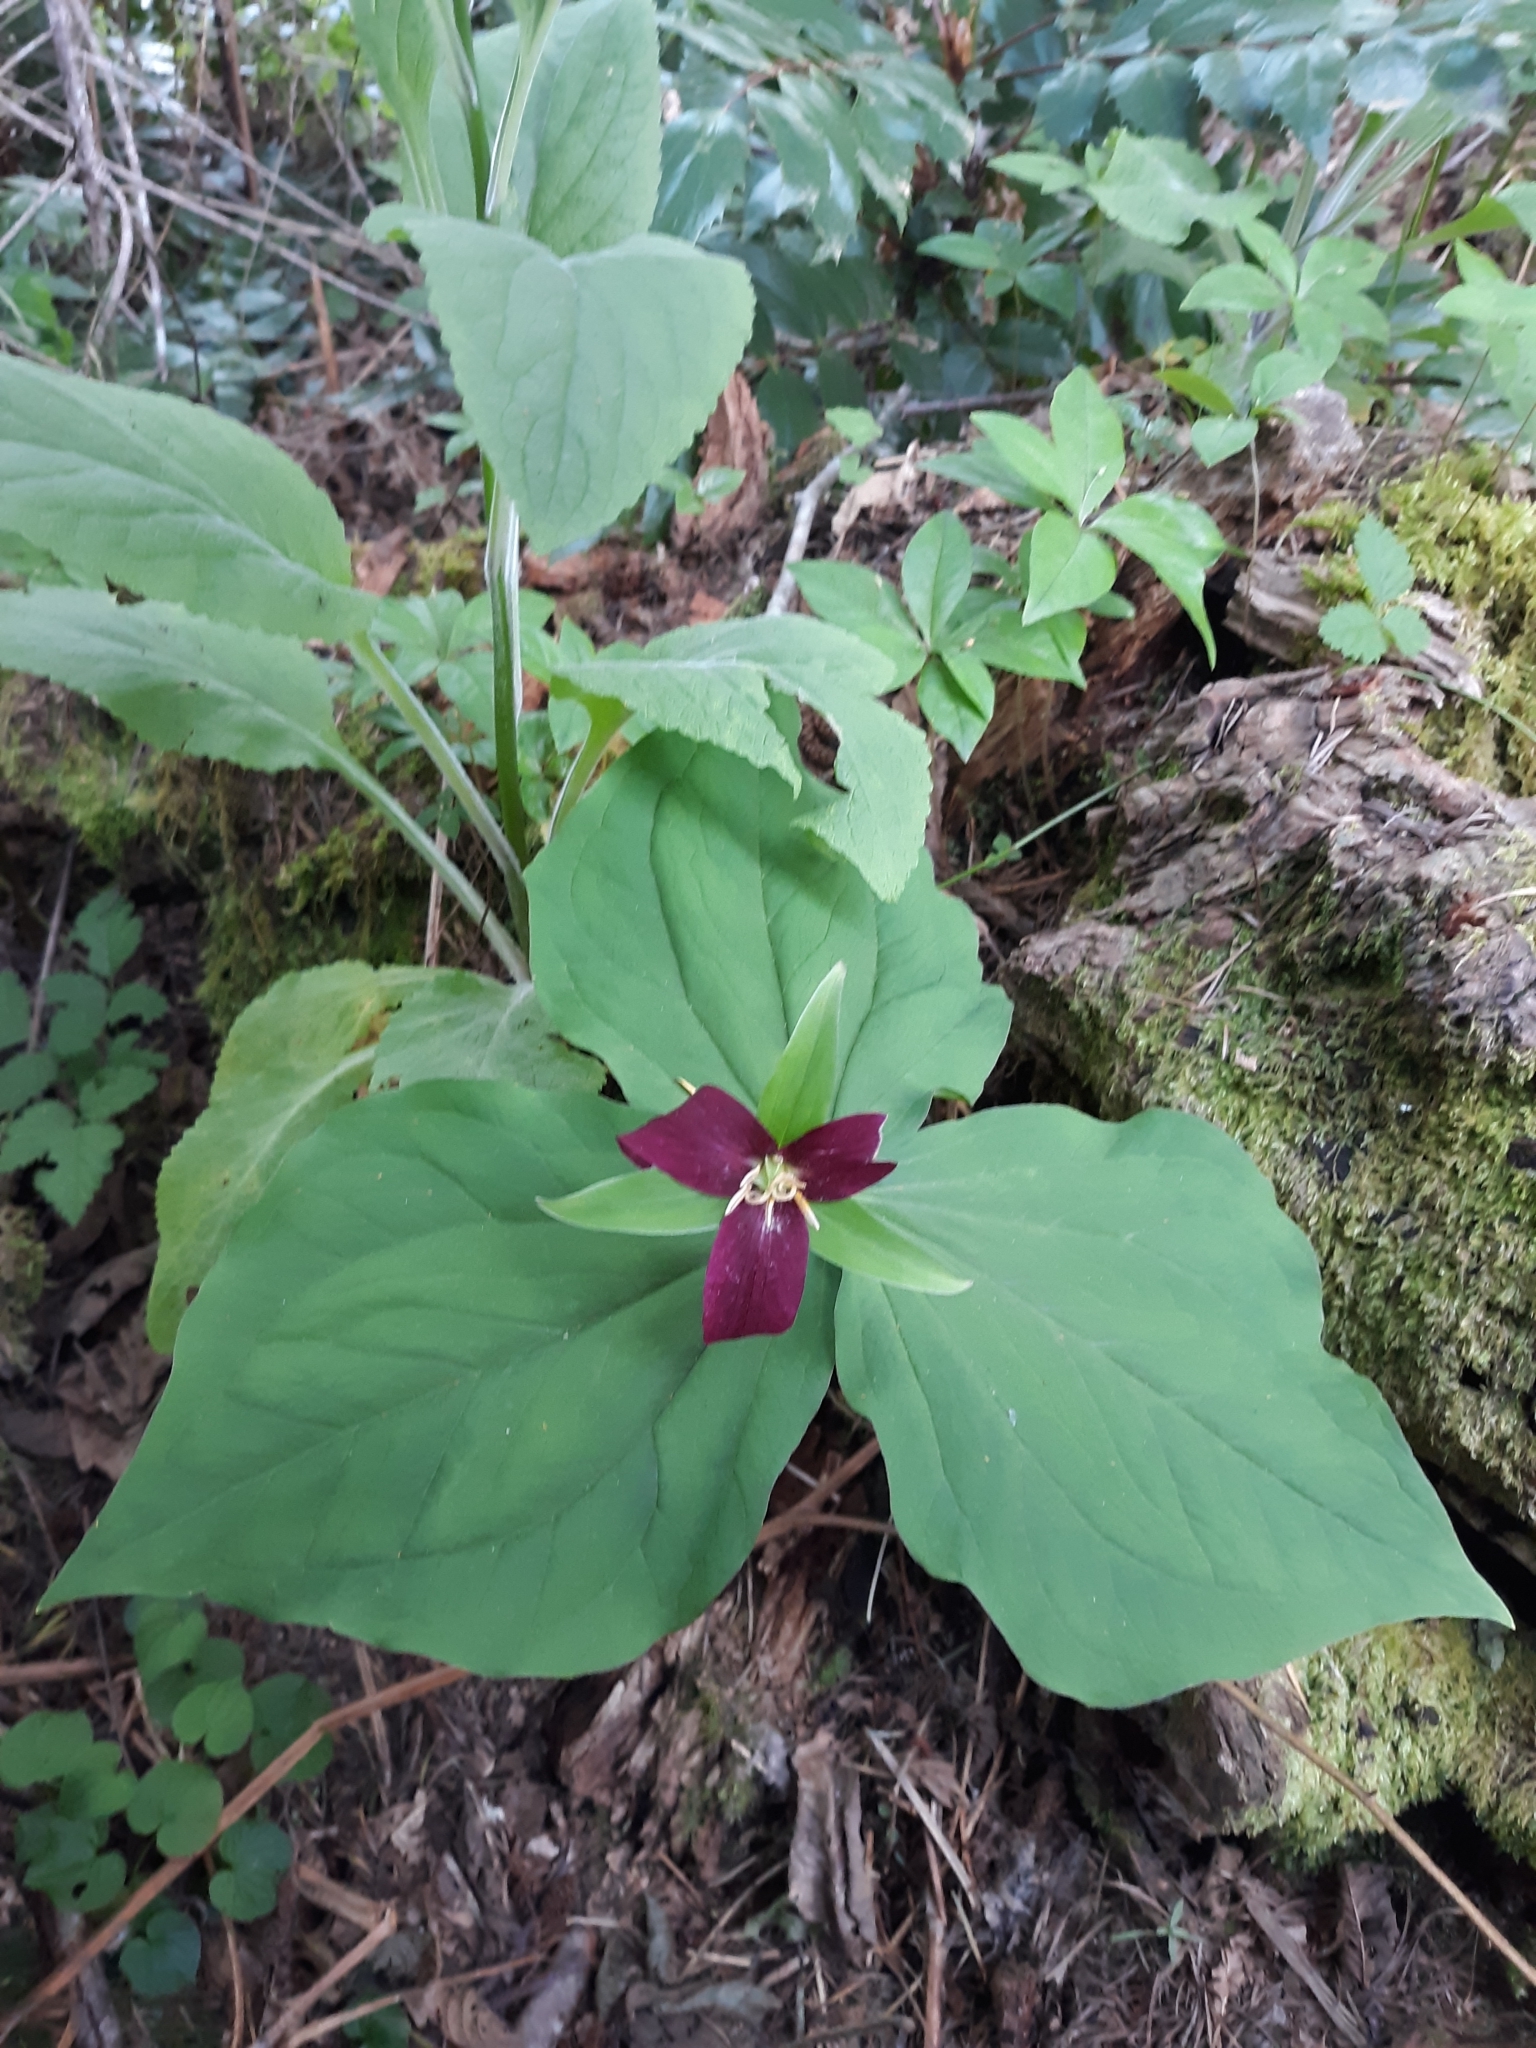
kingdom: Plantae
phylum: Tracheophyta
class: Liliopsida
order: Liliales
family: Melanthiaceae
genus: Trillium
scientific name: Trillium ovatum
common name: Pacific trillium
